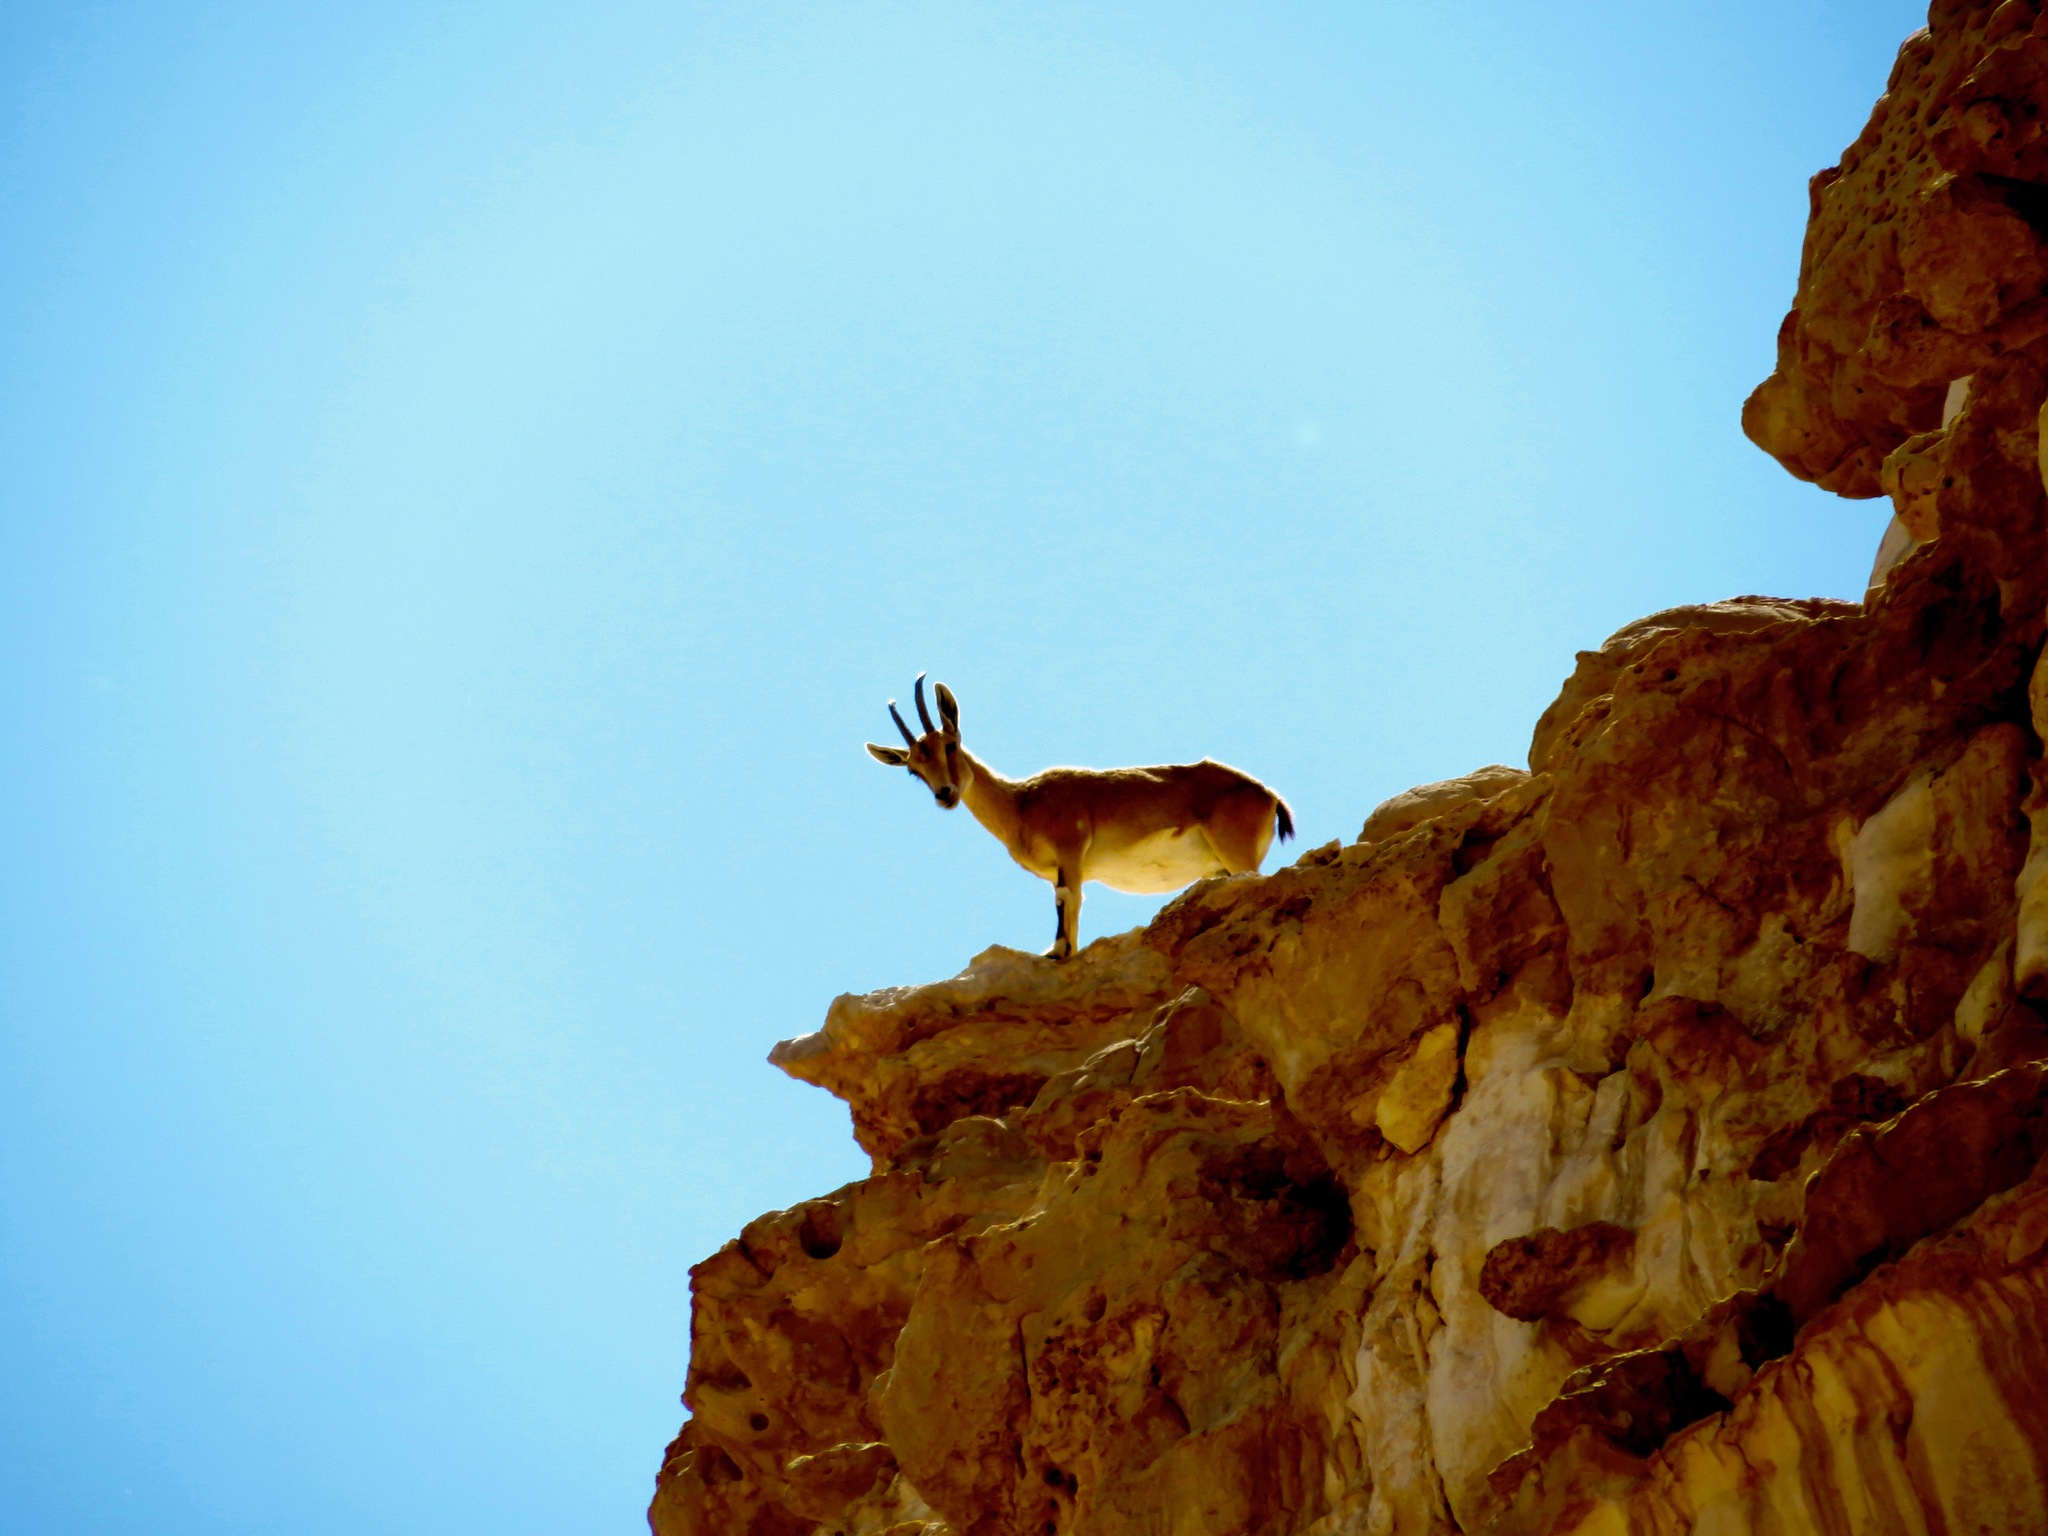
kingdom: Animalia
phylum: Chordata
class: Mammalia
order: Artiodactyla
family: Bovidae
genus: Capra
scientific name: Capra nubiana
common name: Nubian ibex
